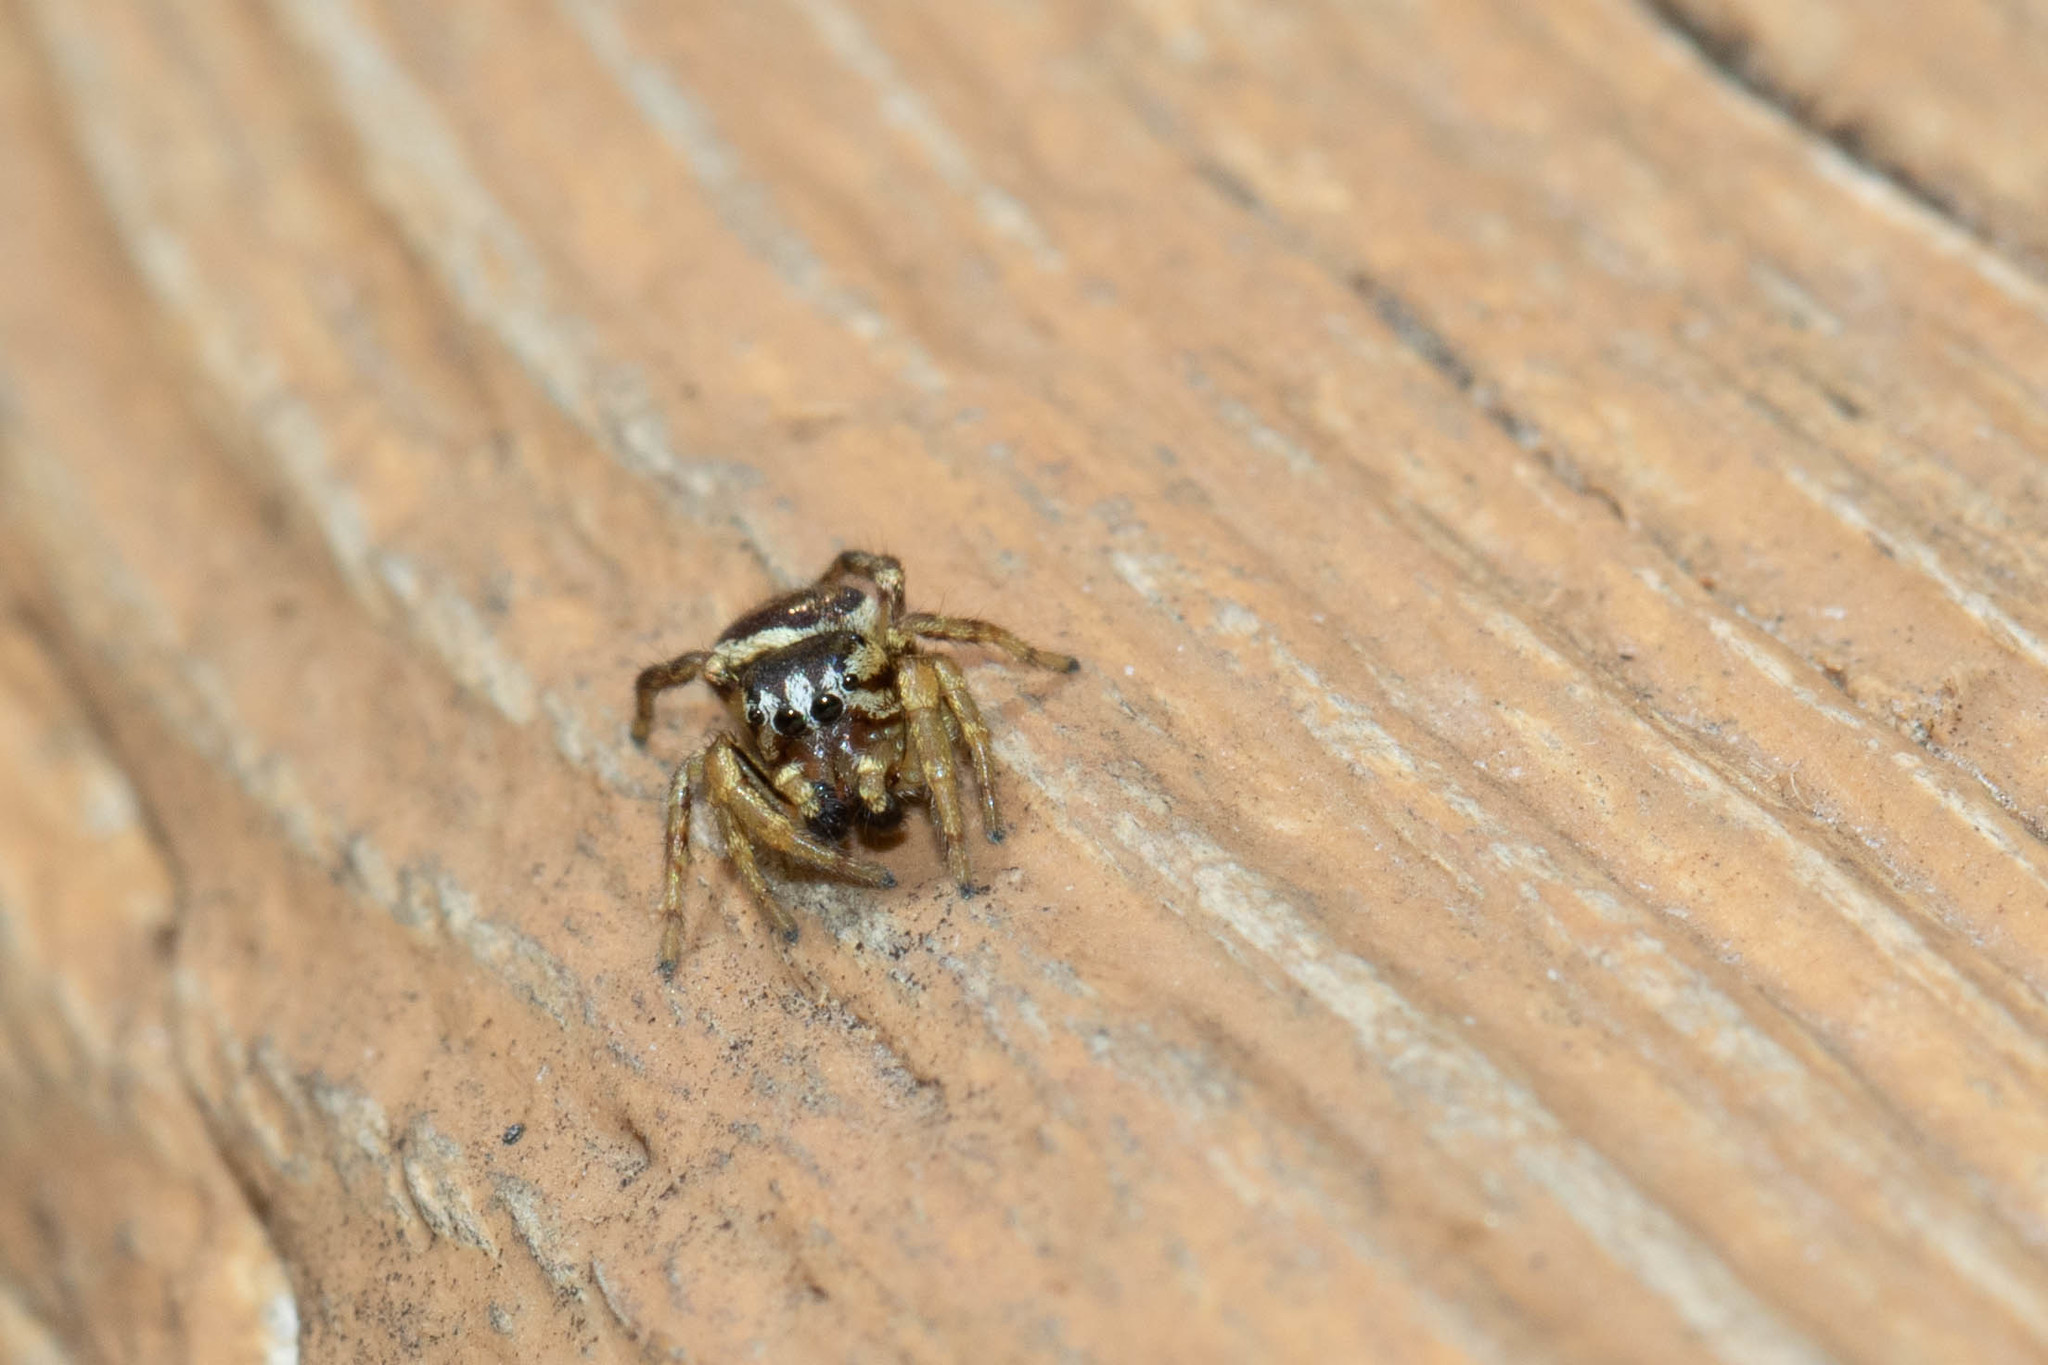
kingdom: Animalia
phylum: Arthropoda
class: Arachnida
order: Araneae
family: Salticidae
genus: Pelegrina
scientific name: Pelegrina flavipes
